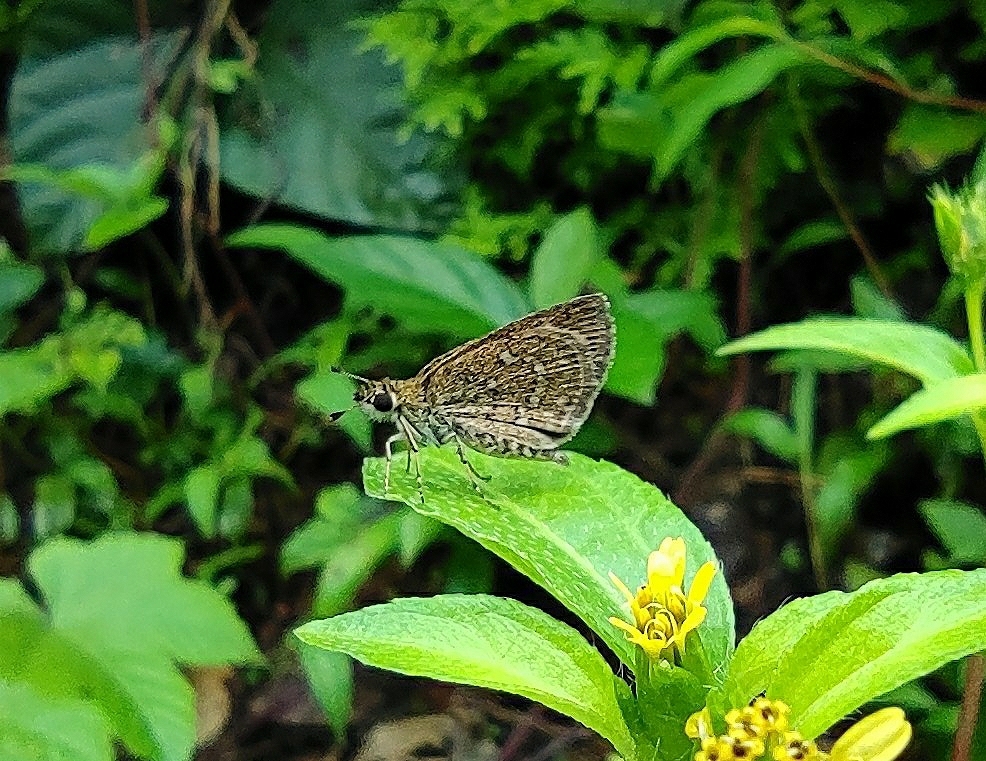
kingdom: Animalia
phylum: Arthropoda
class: Insecta
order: Lepidoptera
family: Hesperiidae
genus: Aeromachus
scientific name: Aeromachus pygmaeus
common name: Pygmy scrub hopper
